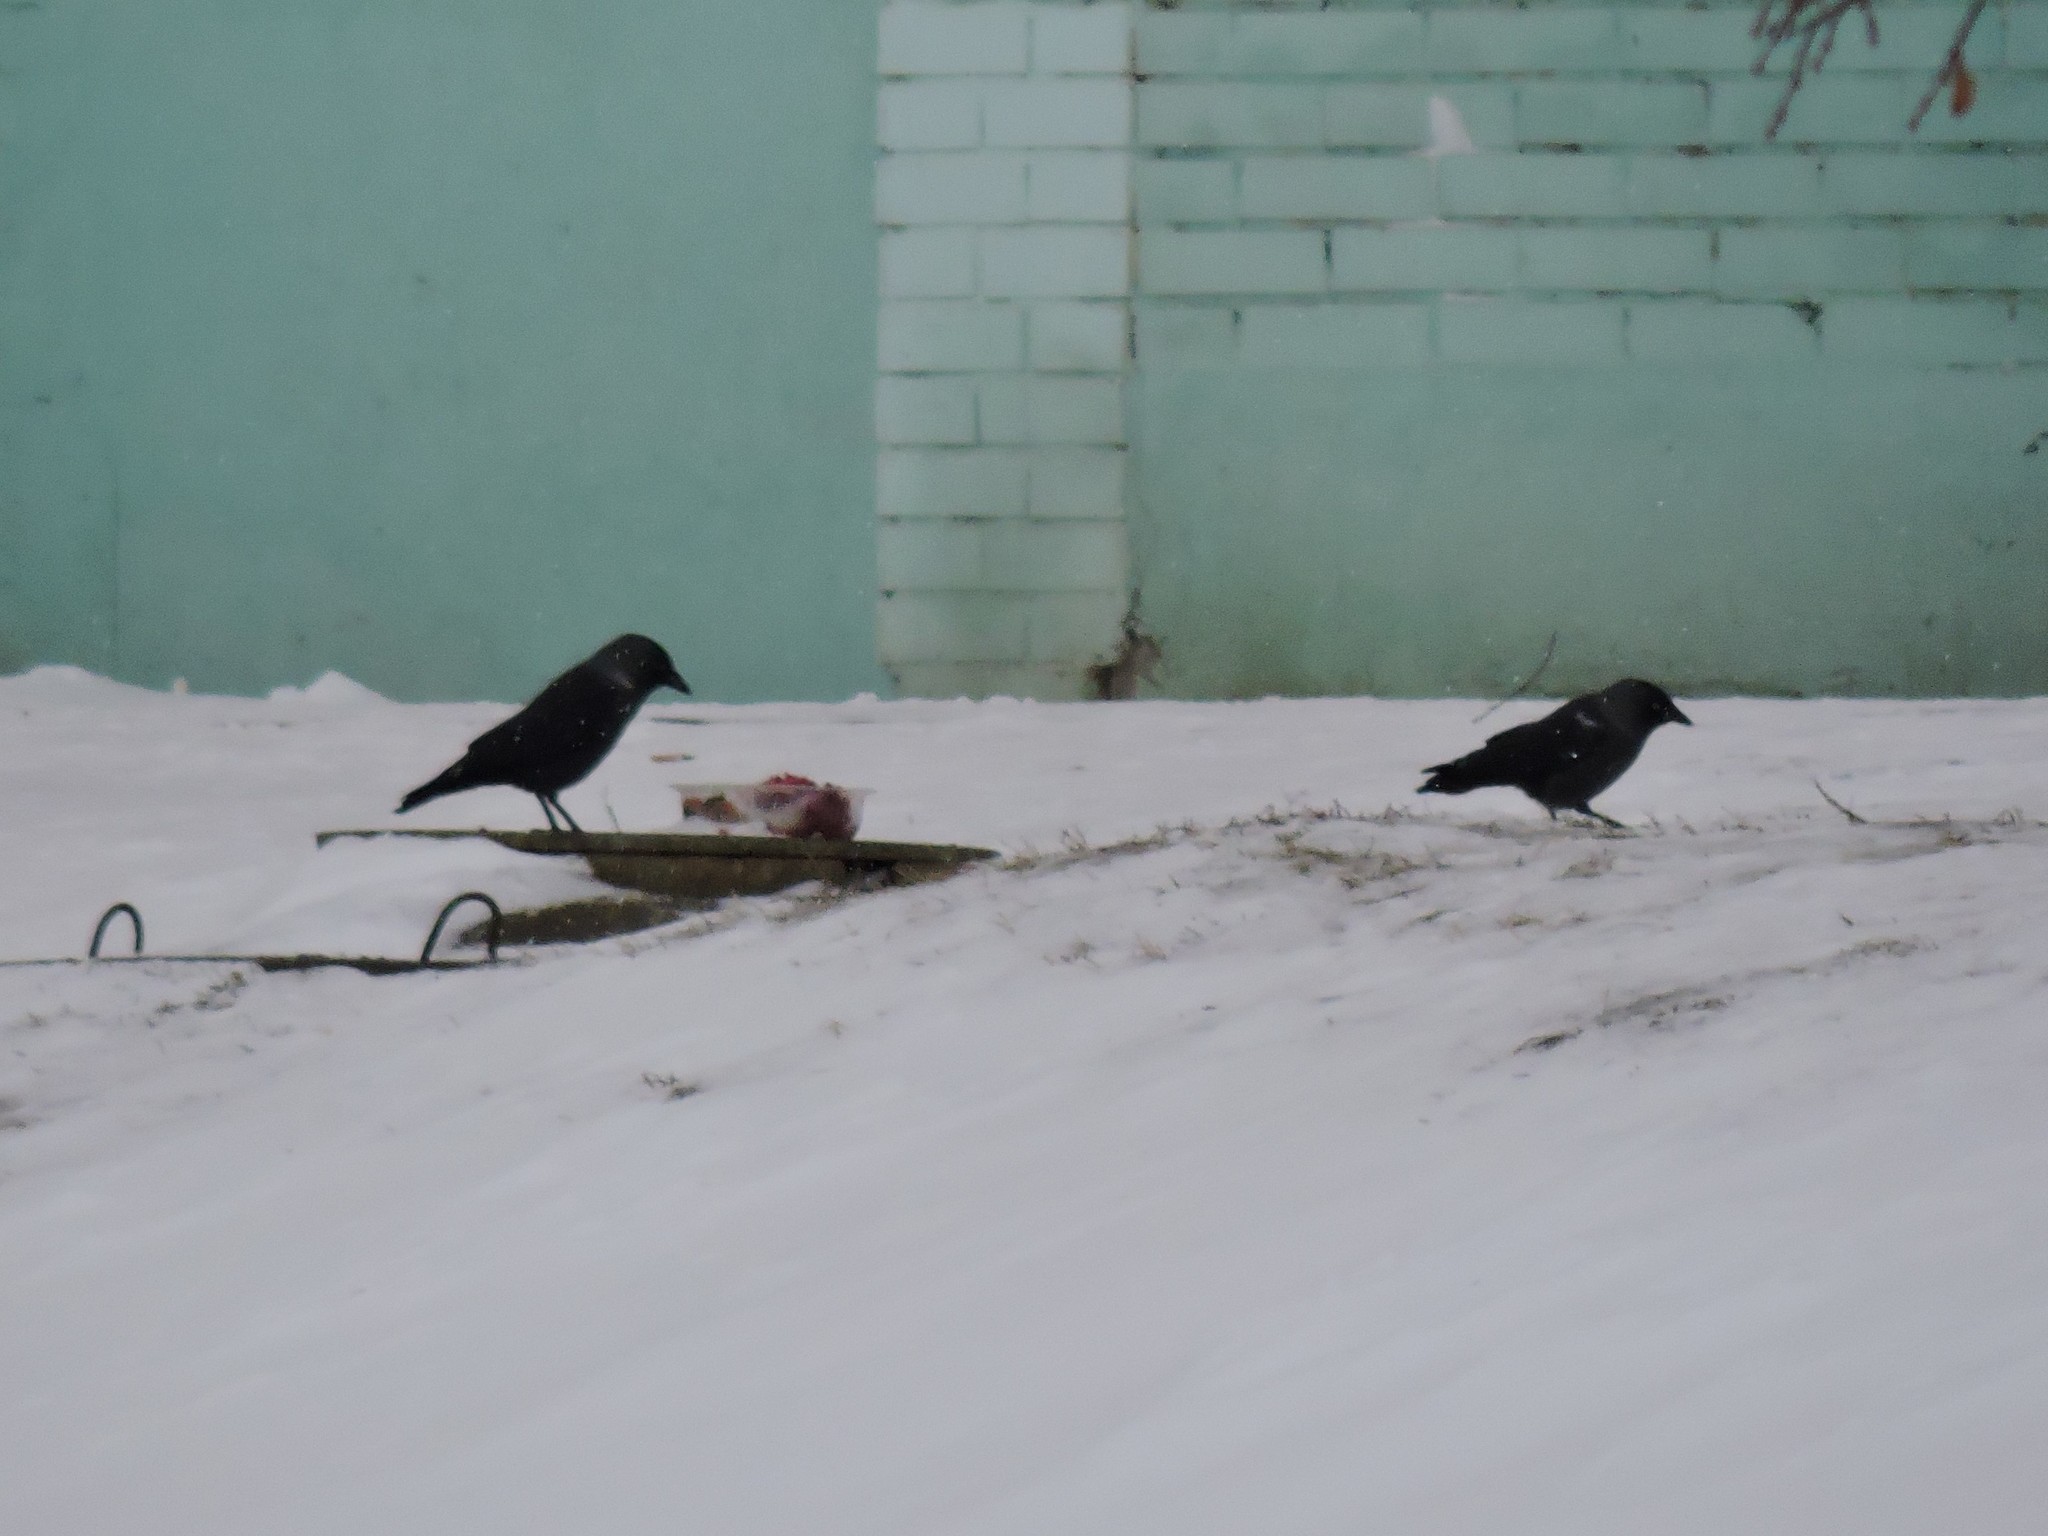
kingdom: Animalia
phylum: Chordata
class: Aves
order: Passeriformes
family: Corvidae
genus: Coloeus
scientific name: Coloeus monedula
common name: Western jackdaw
